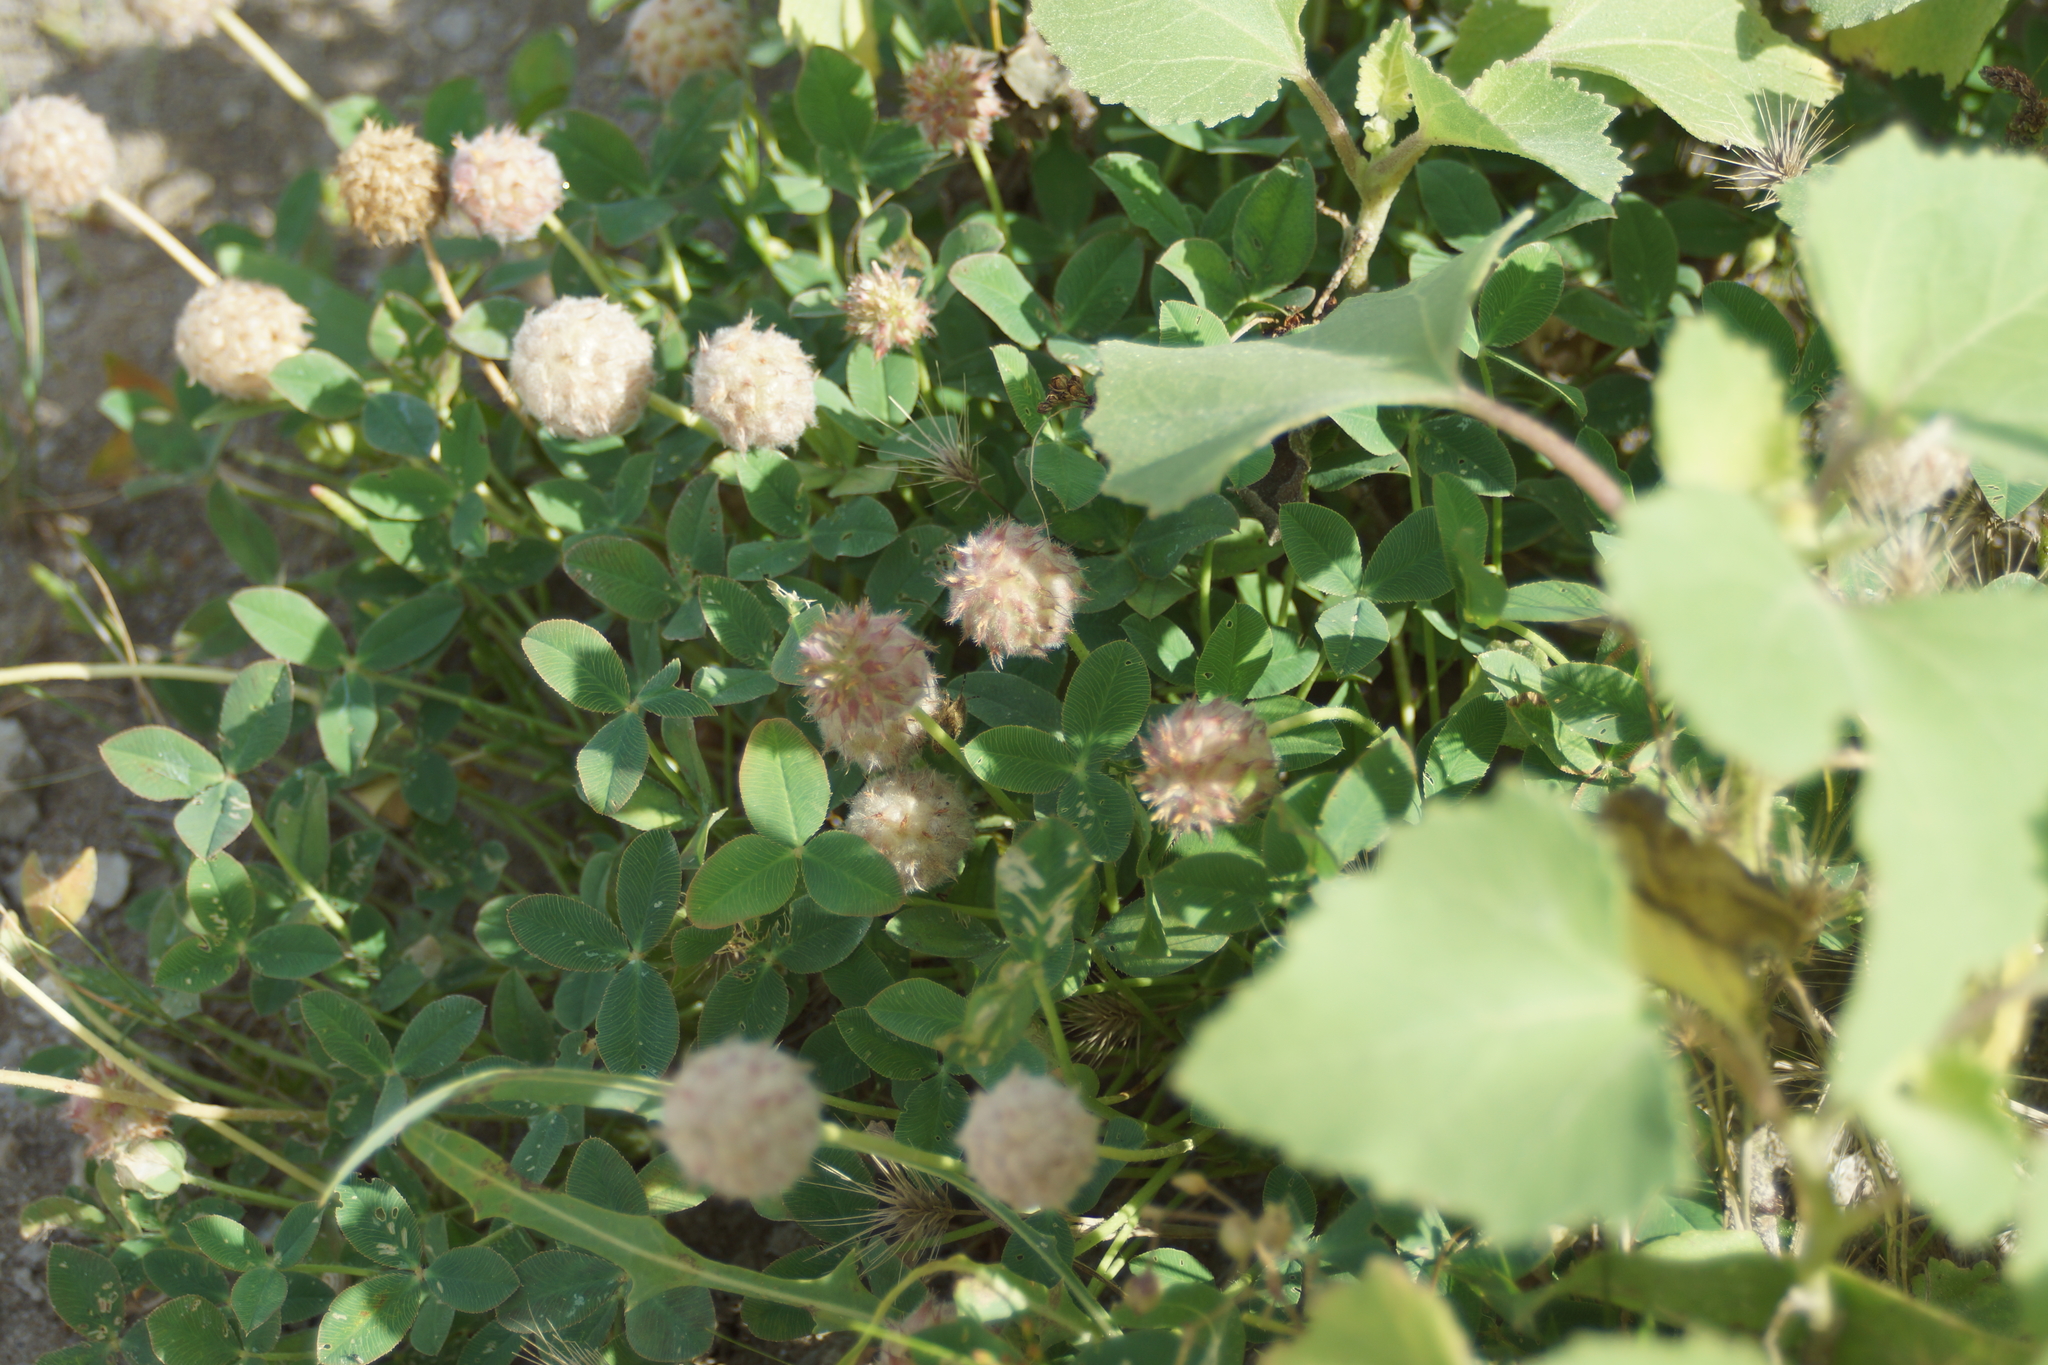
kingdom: Plantae
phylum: Tracheophyta
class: Magnoliopsida
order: Fabales
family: Fabaceae
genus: Trifolium
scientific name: Trifolium fragiferum
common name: Strawberry clover
